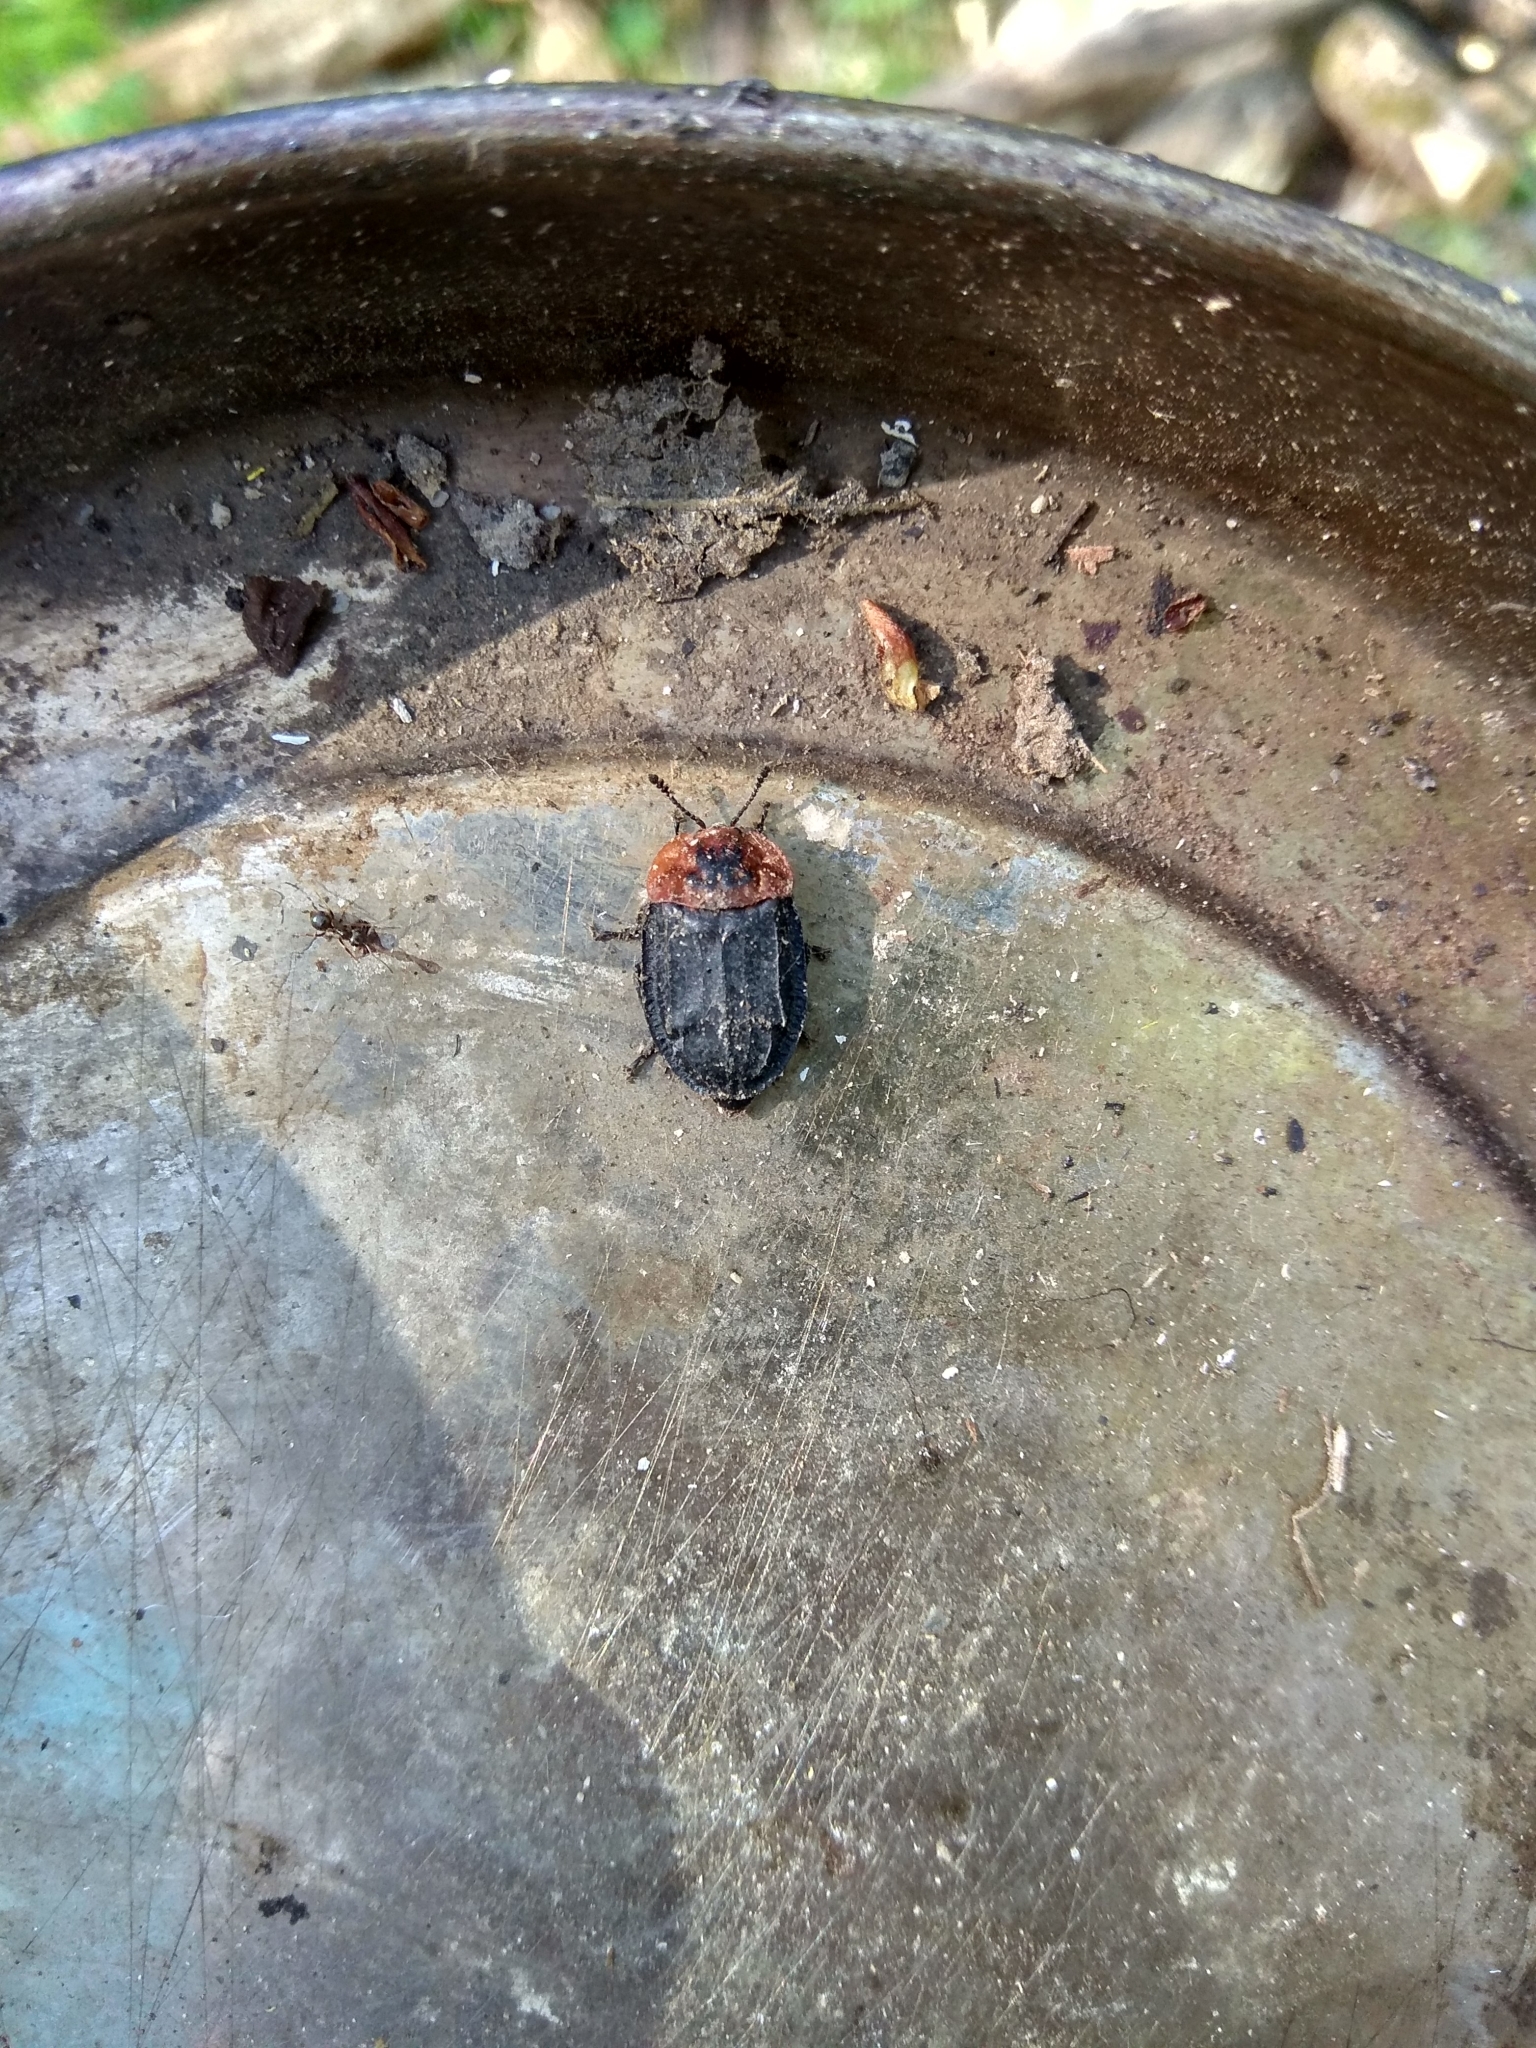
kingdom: Animalia
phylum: Arthropoda
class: Insecta
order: Coleoptera
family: Staphylinidae
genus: Oiceoptoma
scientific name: Oiceoptoma thoracicum
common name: Red-breasted carrion beetle
